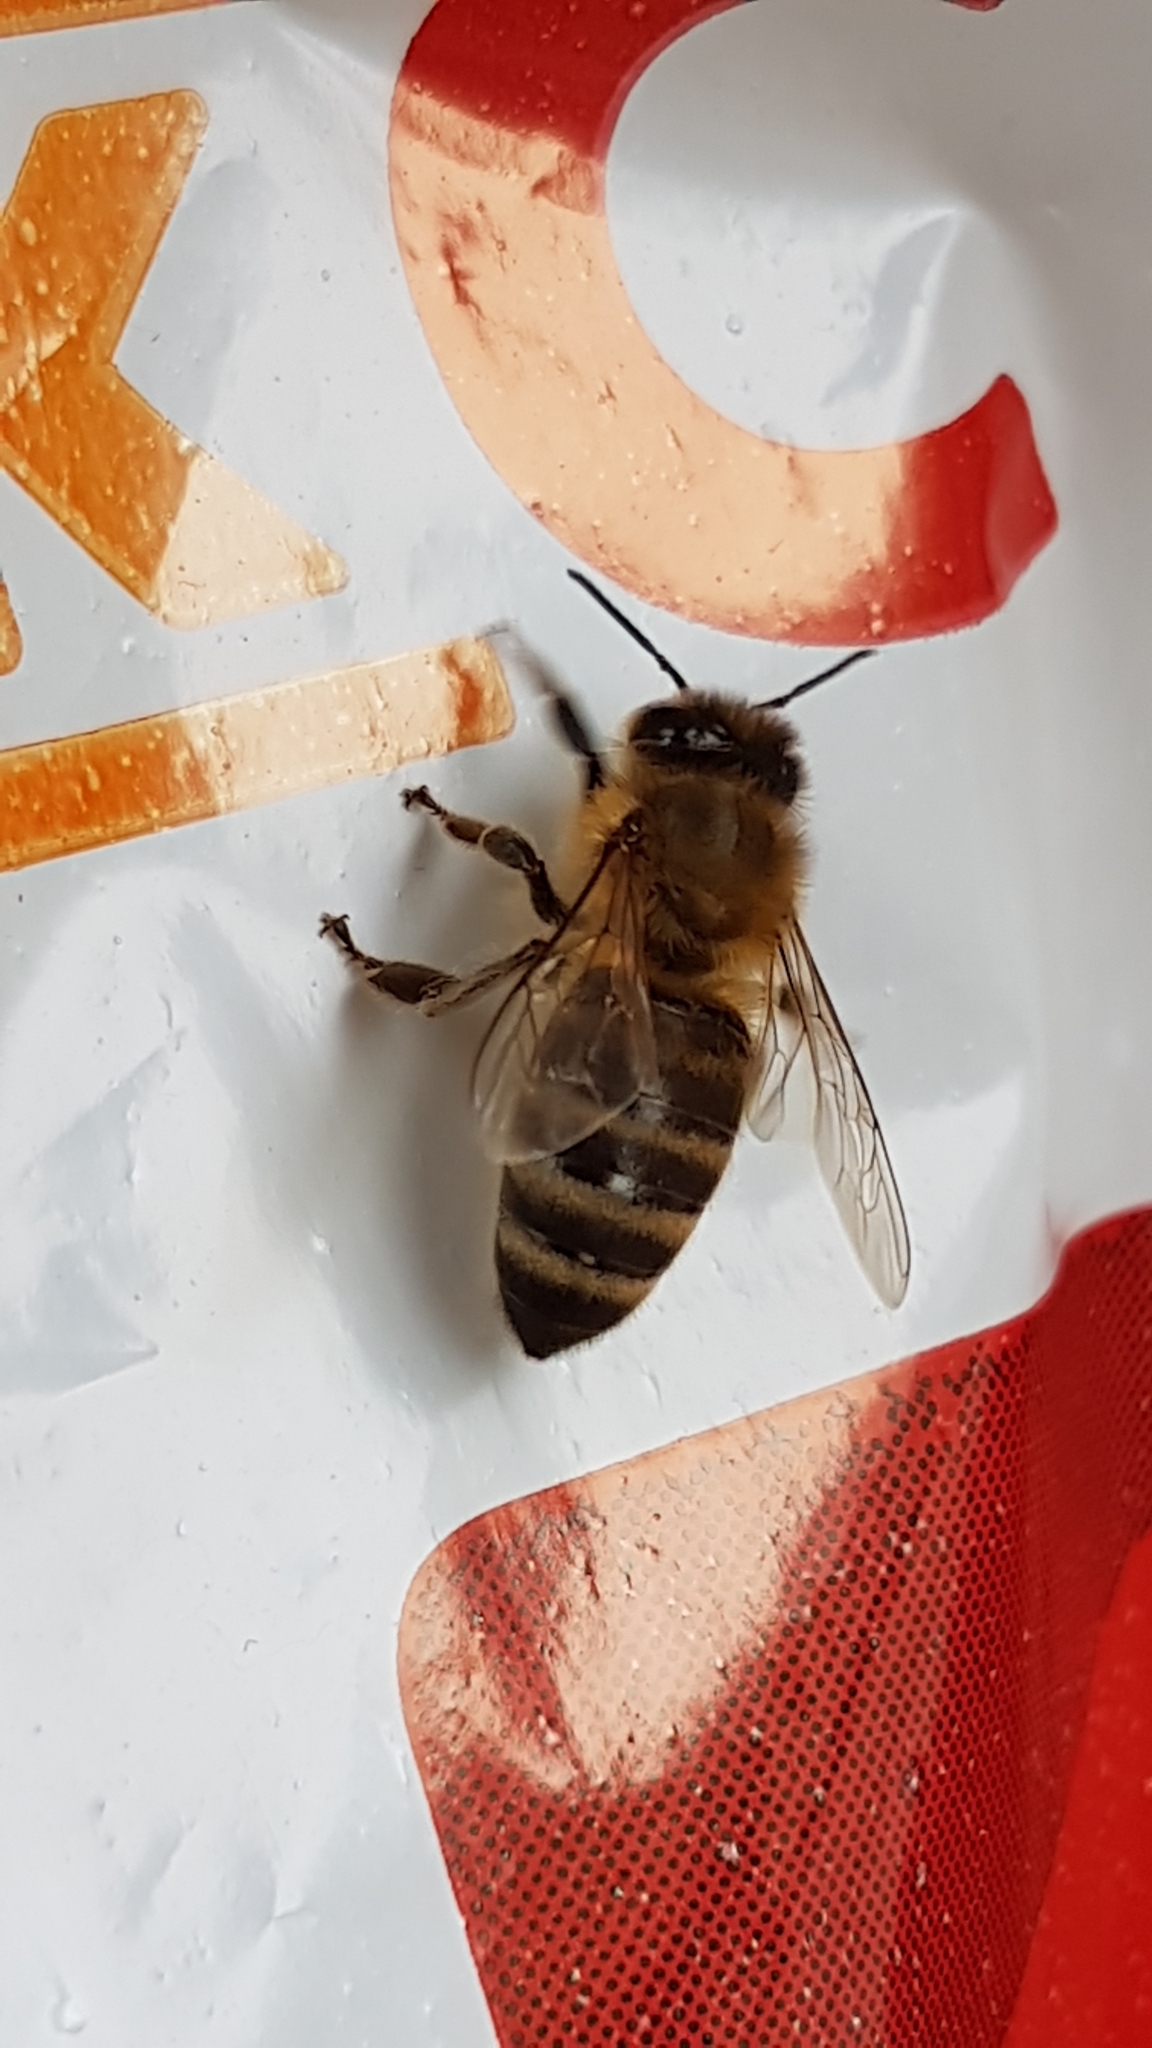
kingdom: Animalia
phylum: Arthropoda
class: Insecta
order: Hymenoptera
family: Apidae
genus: Apis
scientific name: Apis mellifera
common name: Honey bee
